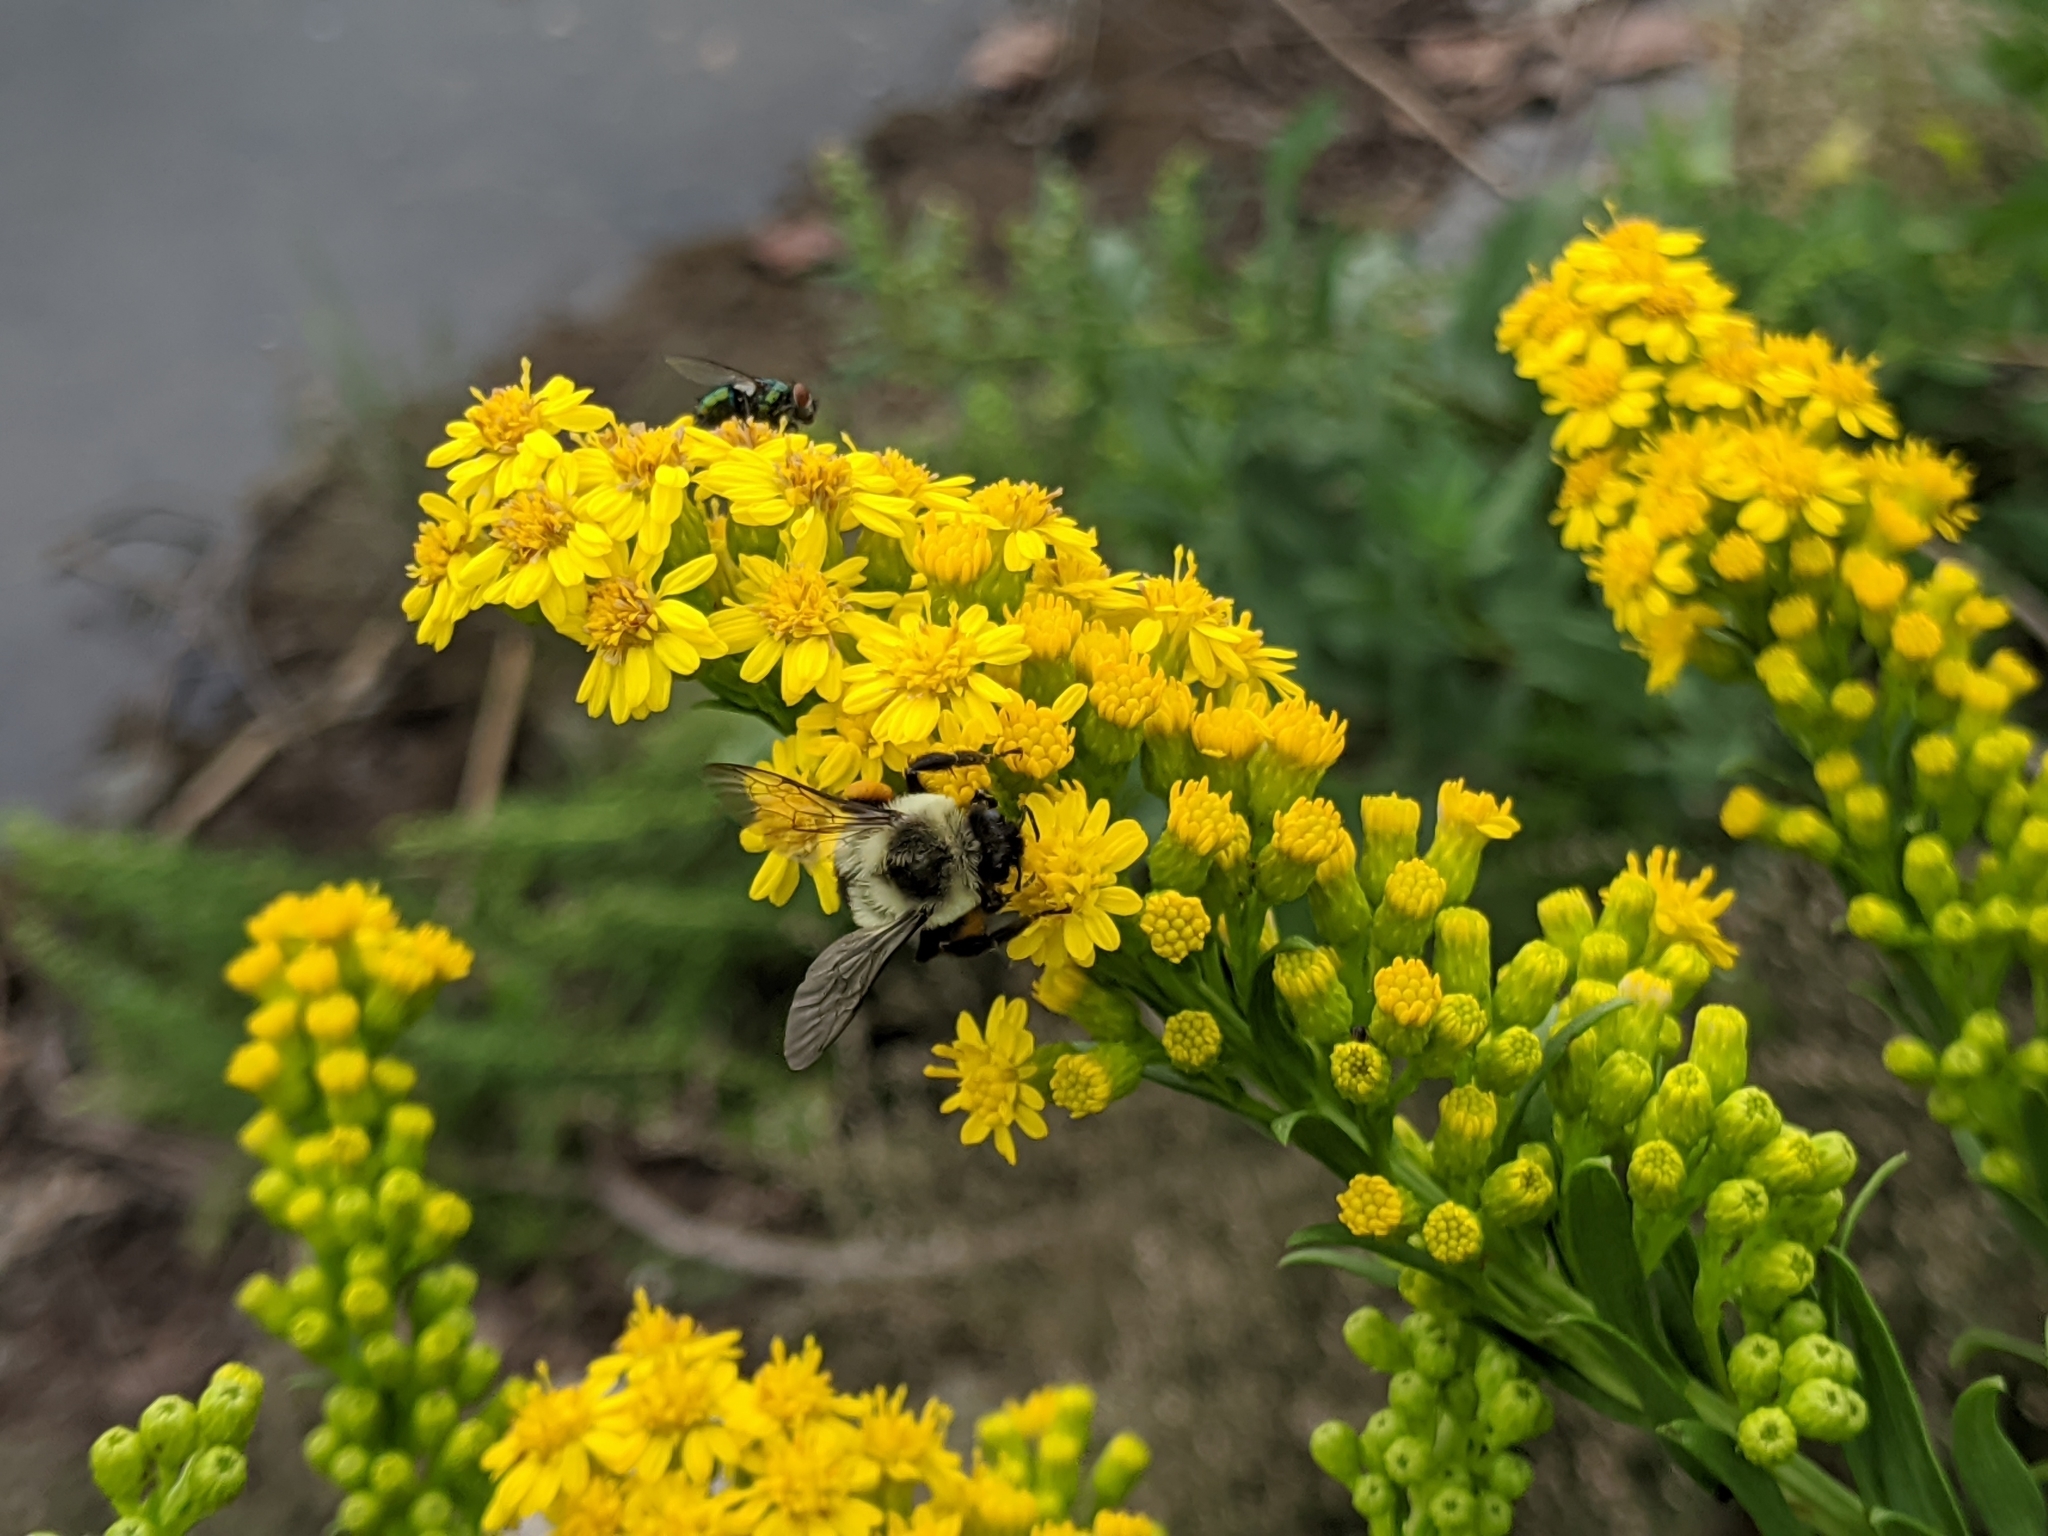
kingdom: Plantae
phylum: Tracheophyta
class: Magnoliopsida
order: Asterales
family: Asteraceae
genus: Solidago
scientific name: Solidago sempervirens
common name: Salt-marsh goldenrod
